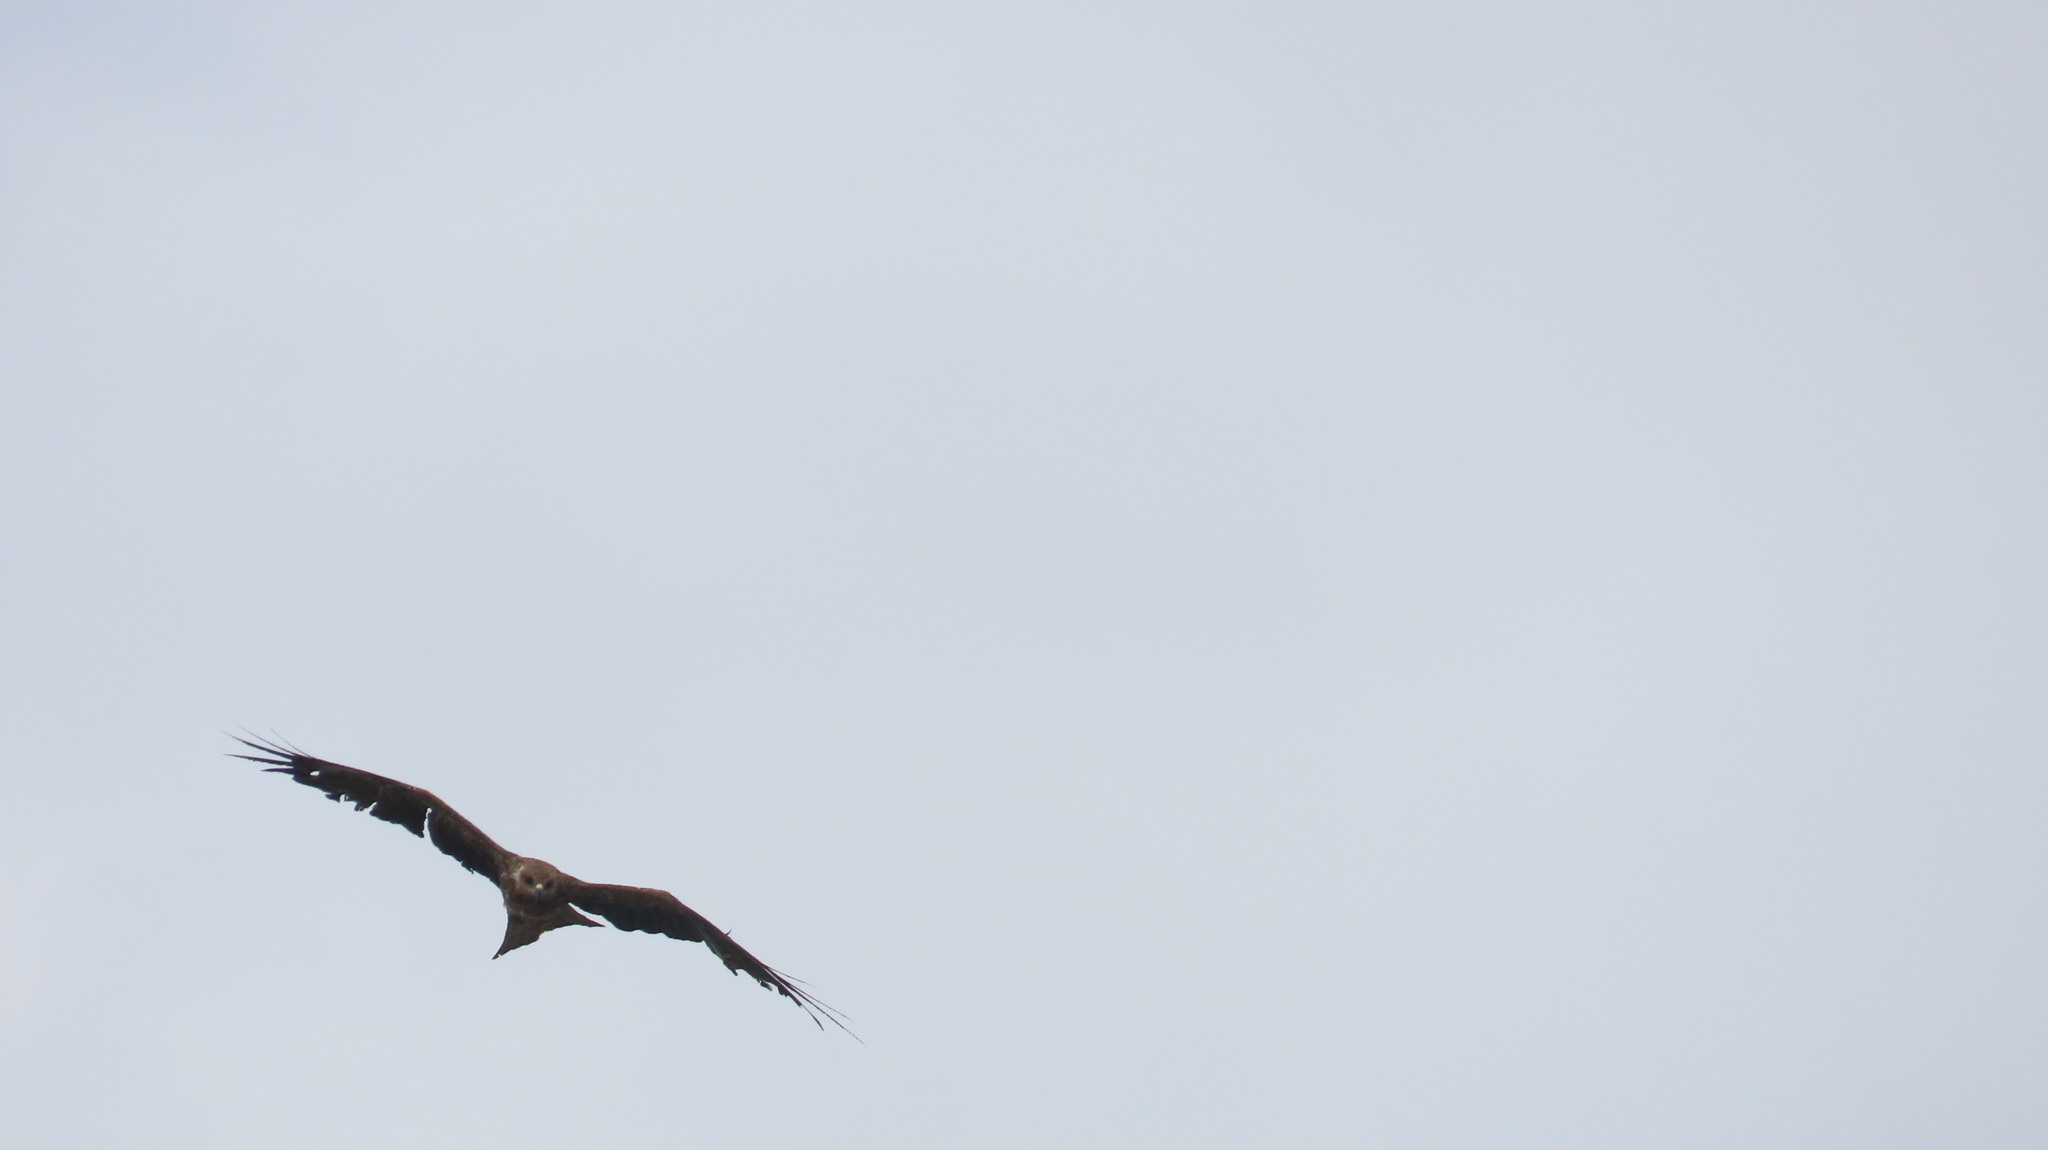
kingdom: Animalia
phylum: Chordata
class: Aves
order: Accipitriformes
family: Accipitridae
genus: Milvus
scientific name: Milvus migrans
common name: Black kite
